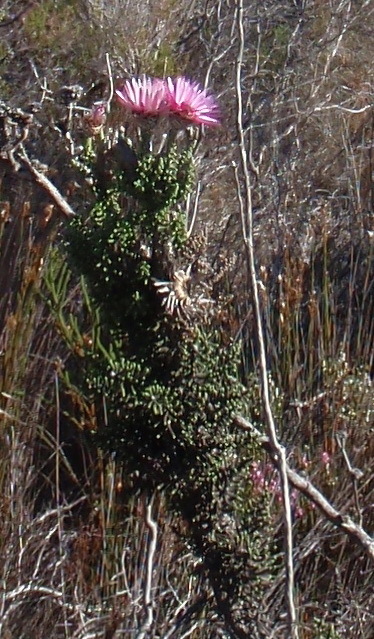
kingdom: Plantae
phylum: Tracheophyta
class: Magnoliopsida
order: Asterales
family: Asteraceae
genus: Phaenocoma
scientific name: Phaenocoma prolifera
